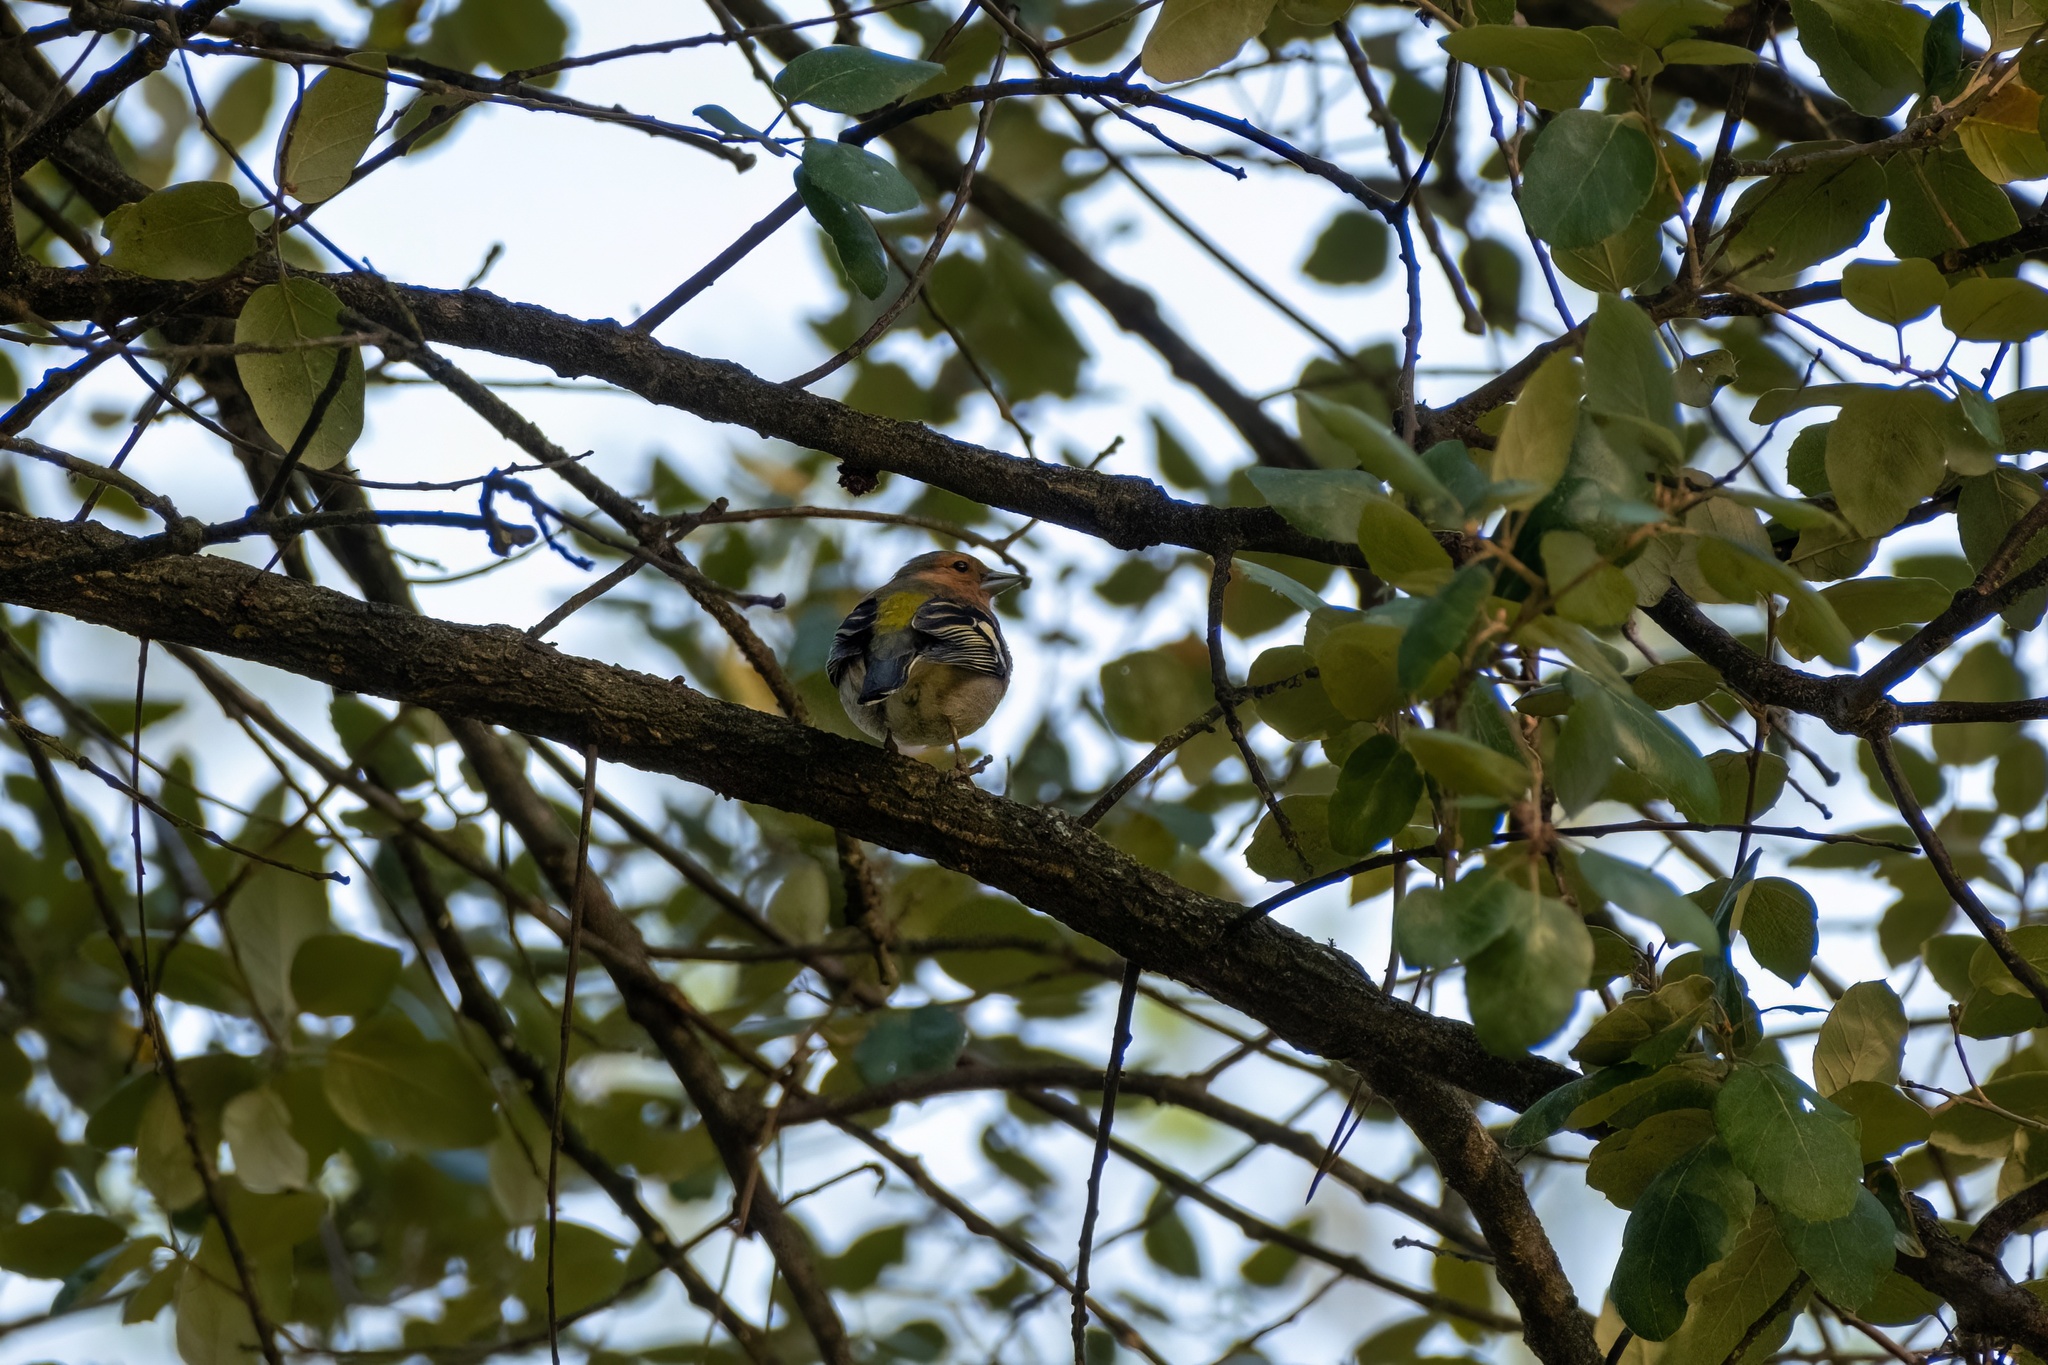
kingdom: Animalia
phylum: Chordata
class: Aves
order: Passeriformes
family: Fringillidae
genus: Fringilla
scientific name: Fringilla coelebs
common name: Common chaffinch
